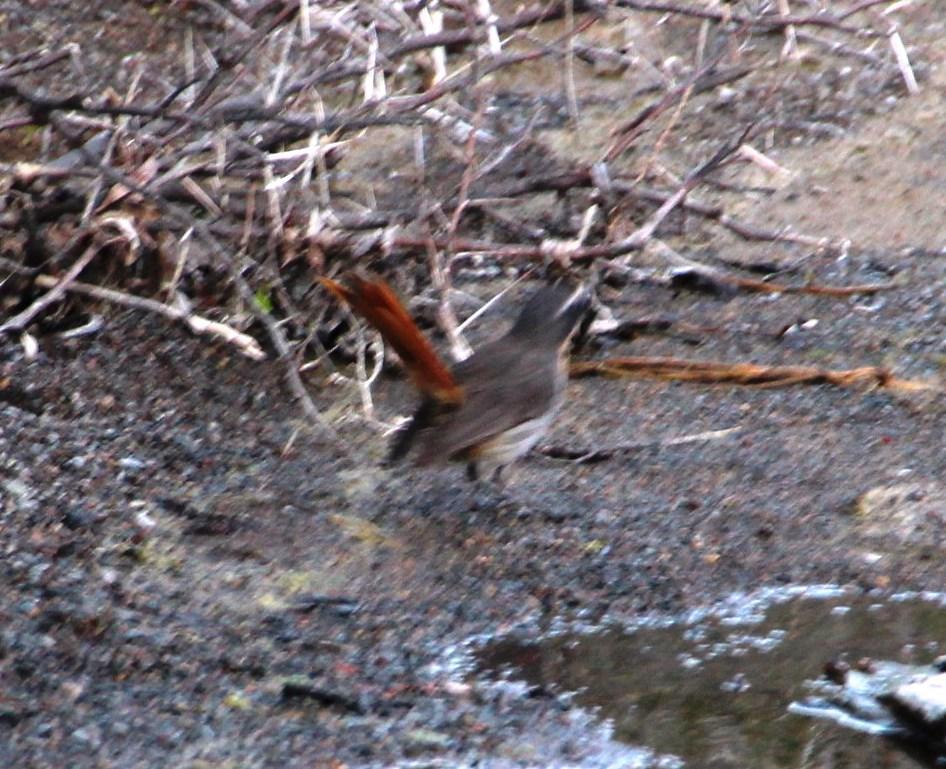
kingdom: Animalia
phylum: Chordata
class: Aves
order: Passeriformes
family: Muscicapidae
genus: Cossypha
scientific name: Cossypha caffra
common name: Cape robin-chat
